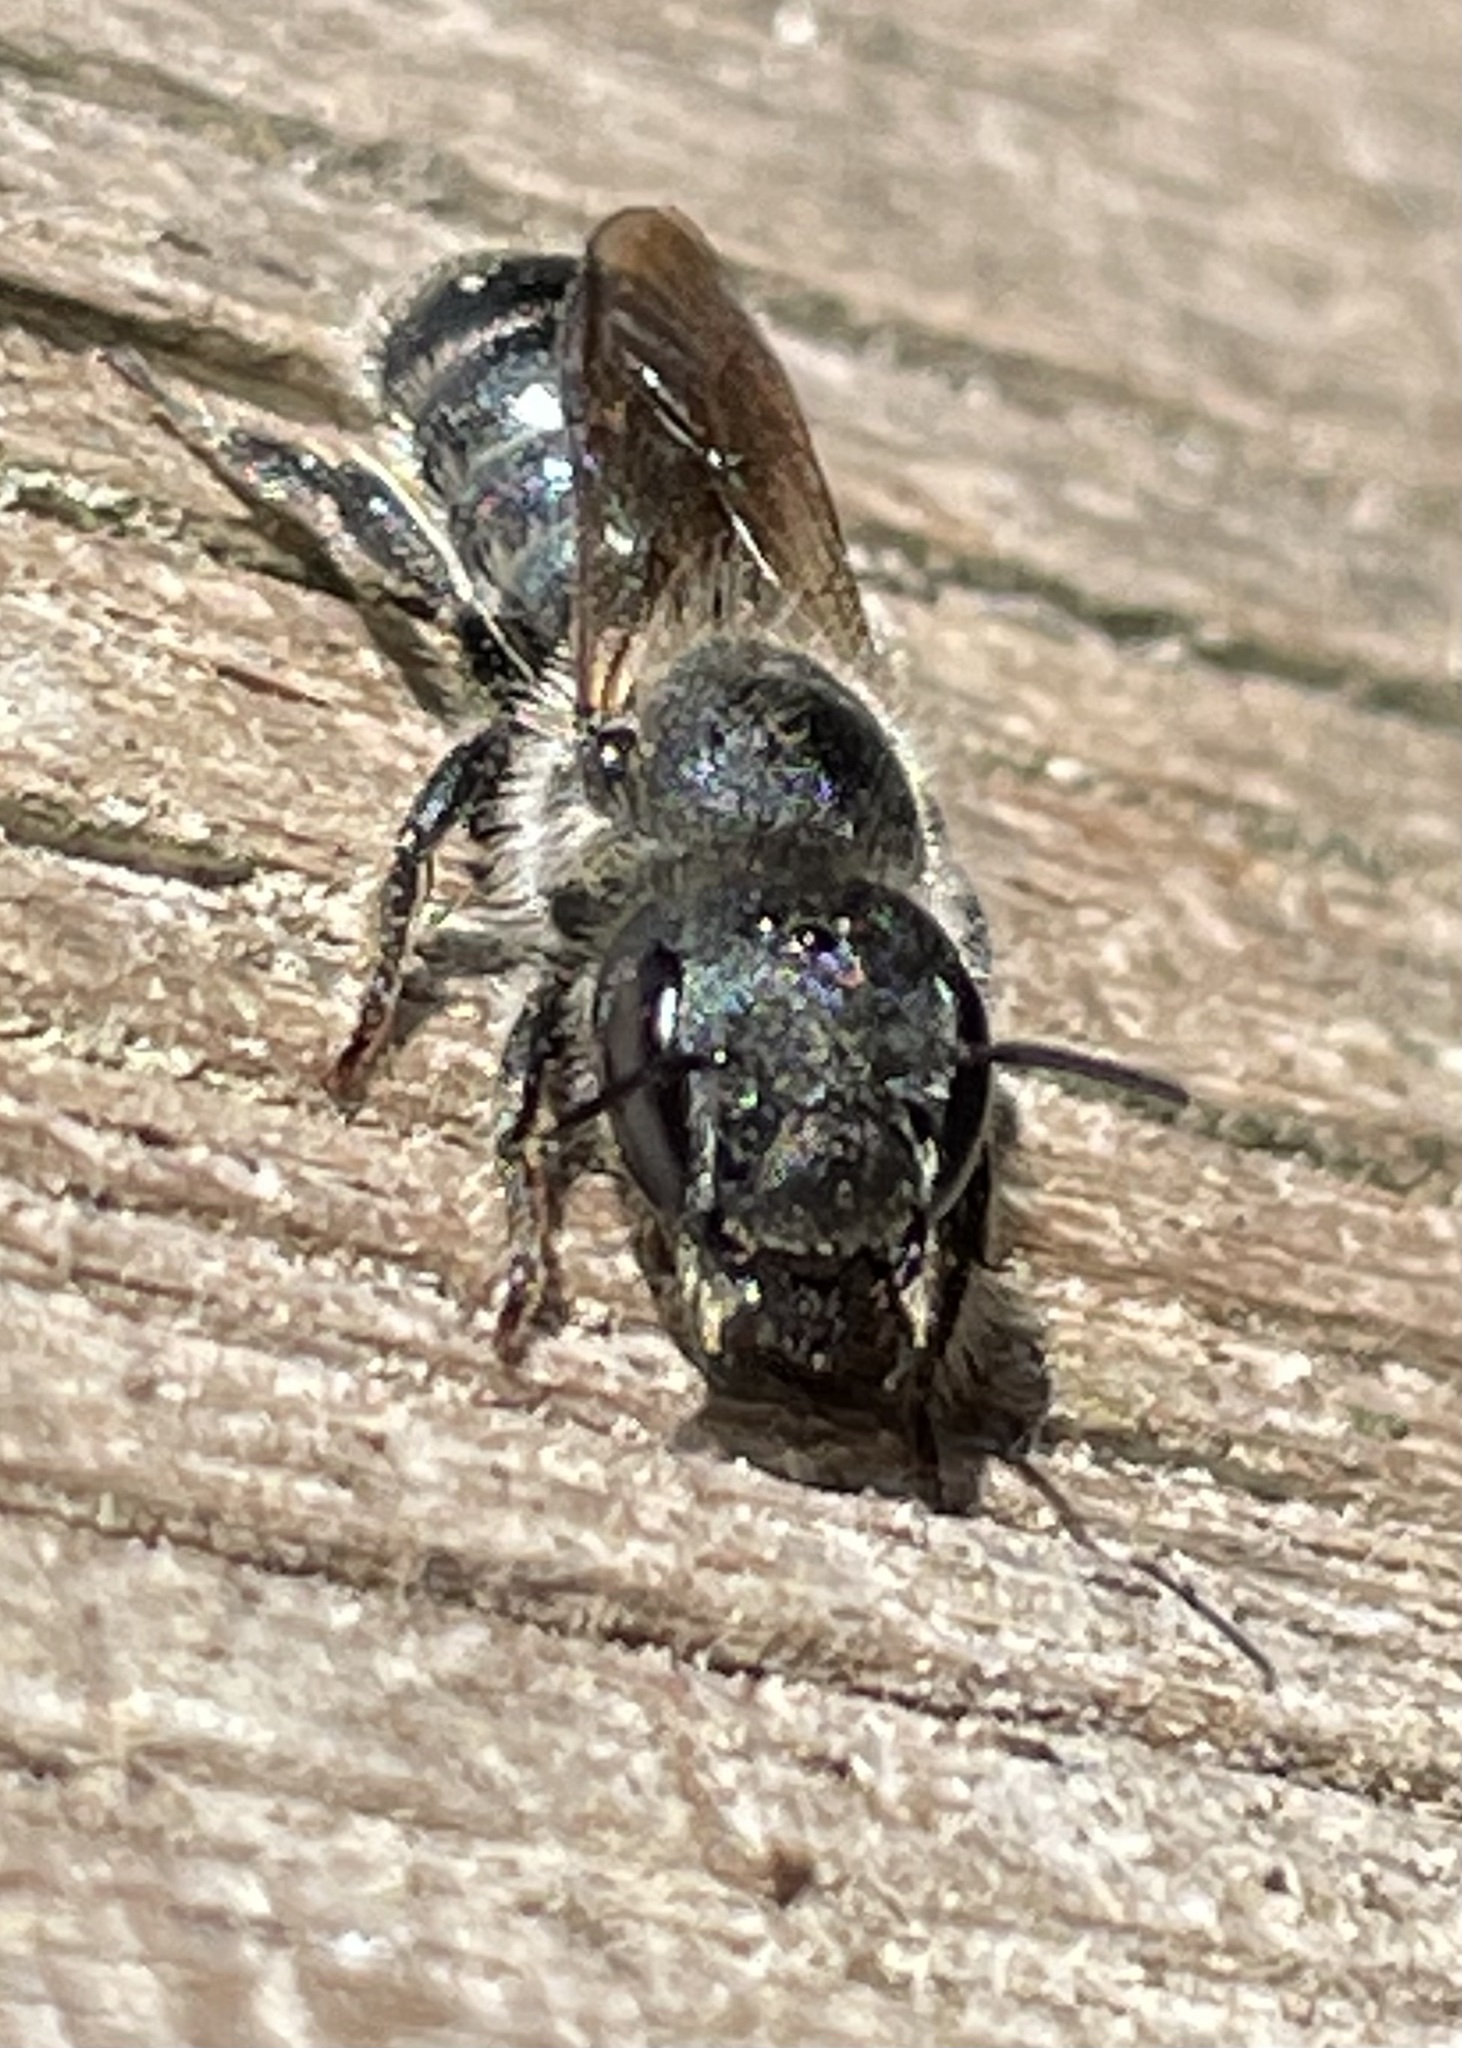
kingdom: Animalia
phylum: Arthropoda
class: Insecta
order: Hymenoptera
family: Megachilidae
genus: Osmia
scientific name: Osmia caerulescens
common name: Blue mason bee
